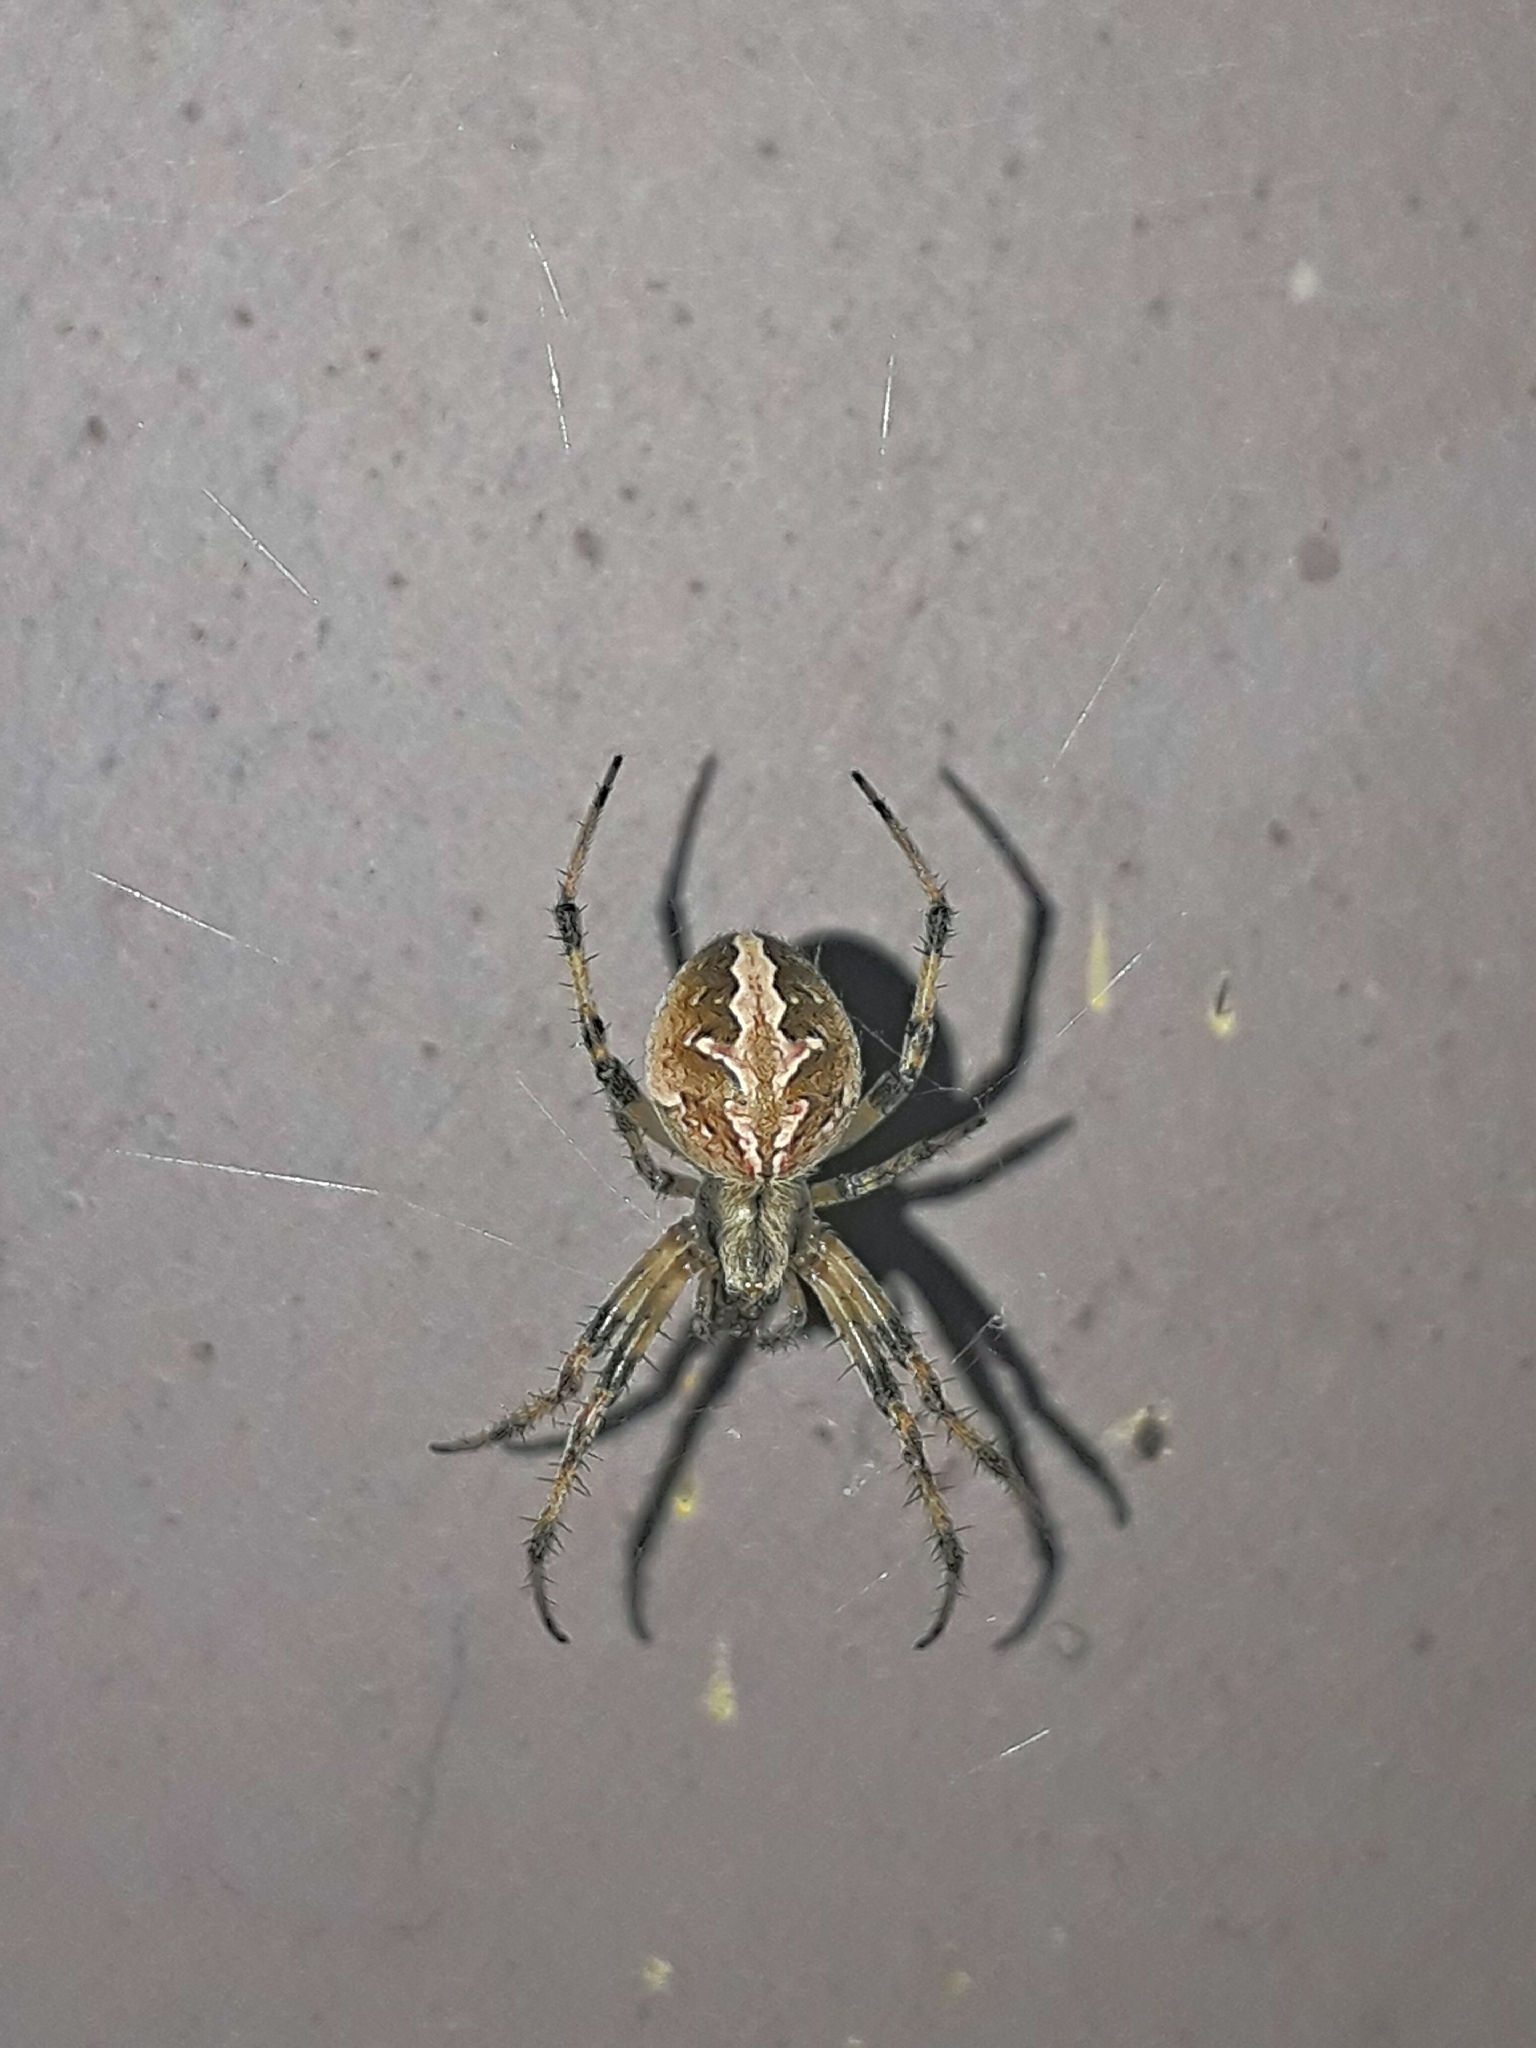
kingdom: Animalia
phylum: Arthropoda
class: Arachnida
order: Araneae
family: Araneidae
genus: Neoscona
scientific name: Neoscona theisi
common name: Spider
